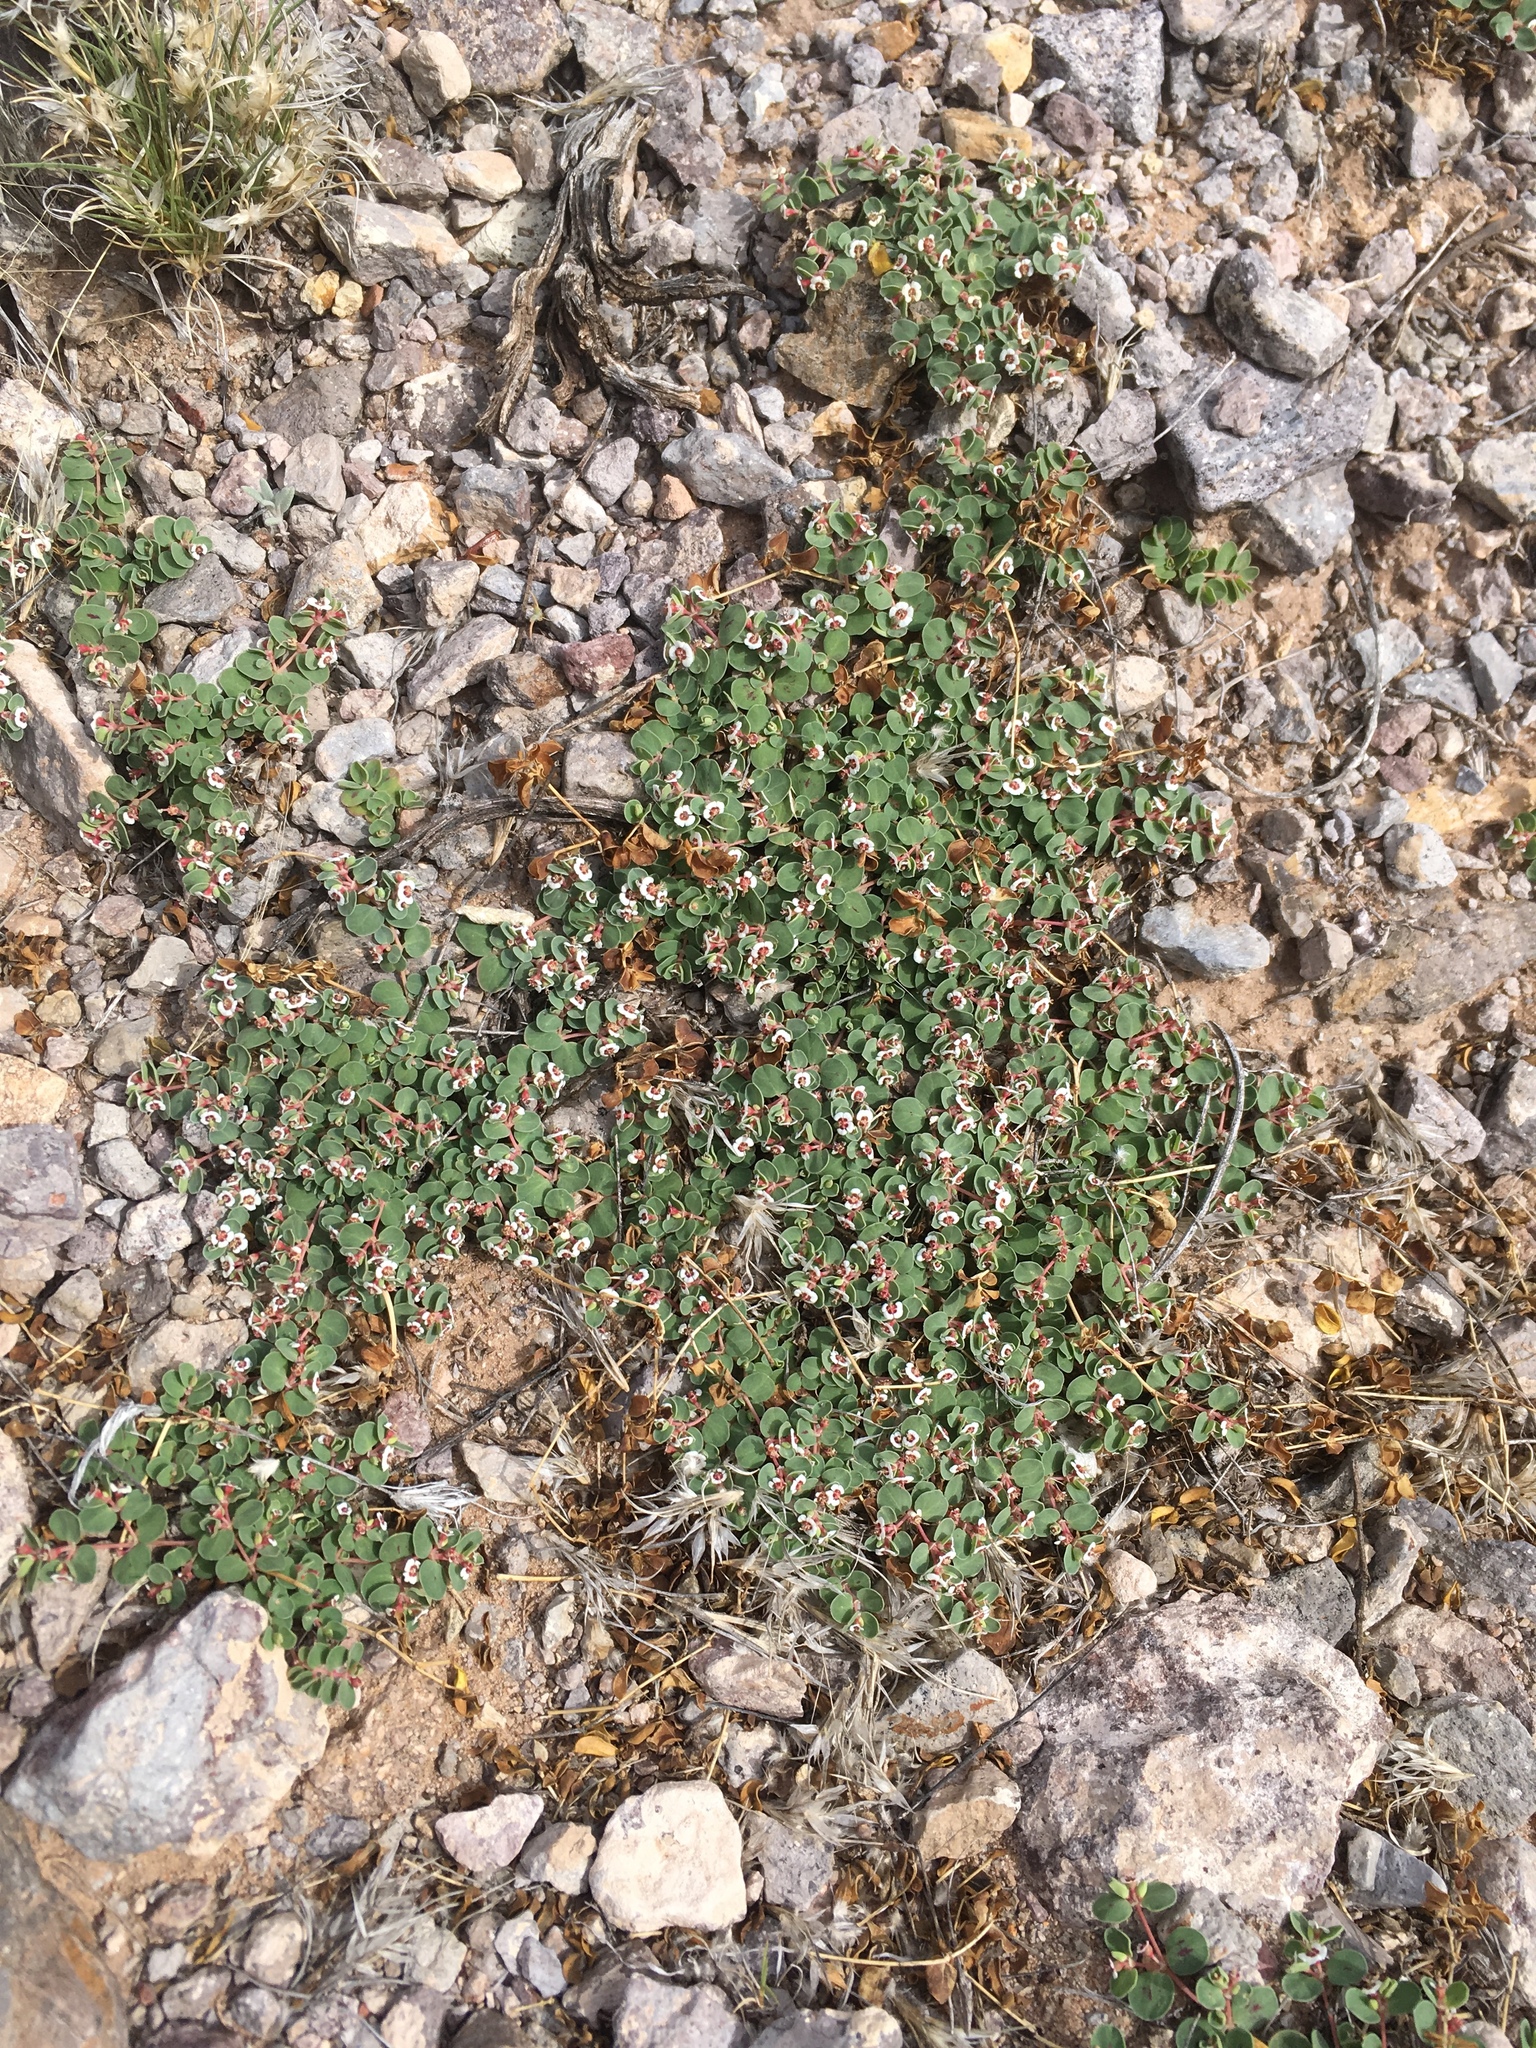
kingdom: Plantae
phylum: Tracheophyta
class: Magnoliopsida
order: Malpighiales
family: Euphorbiaceae
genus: Euphorbia
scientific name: Euphorbia albomarginata
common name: Whitemargin sandmat
